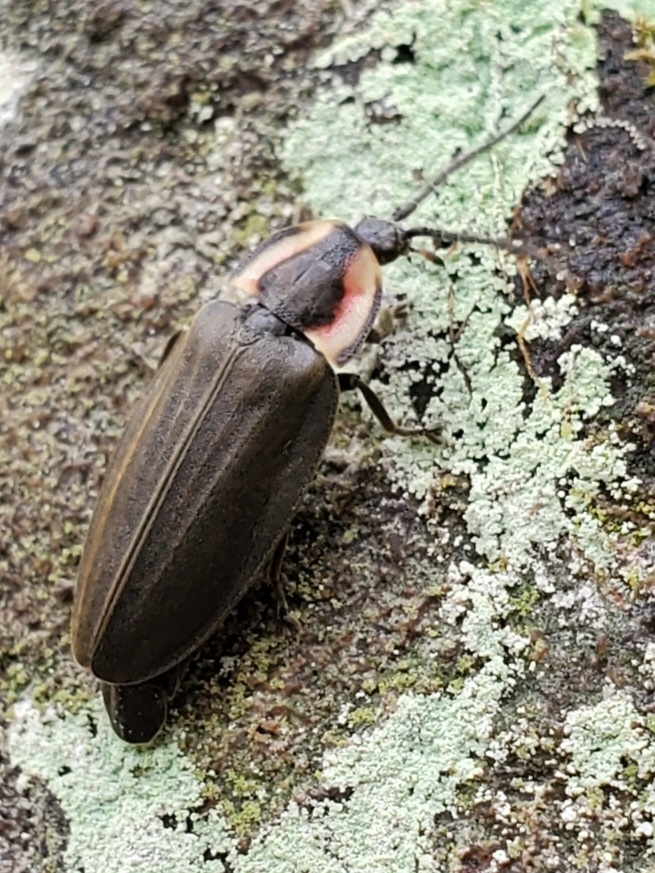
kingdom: Animalia
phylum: Arthropoda
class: Insecta
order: Coleoptera
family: Lampyridae
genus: Photinus
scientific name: Photinus corrusca
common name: Winter firefly
